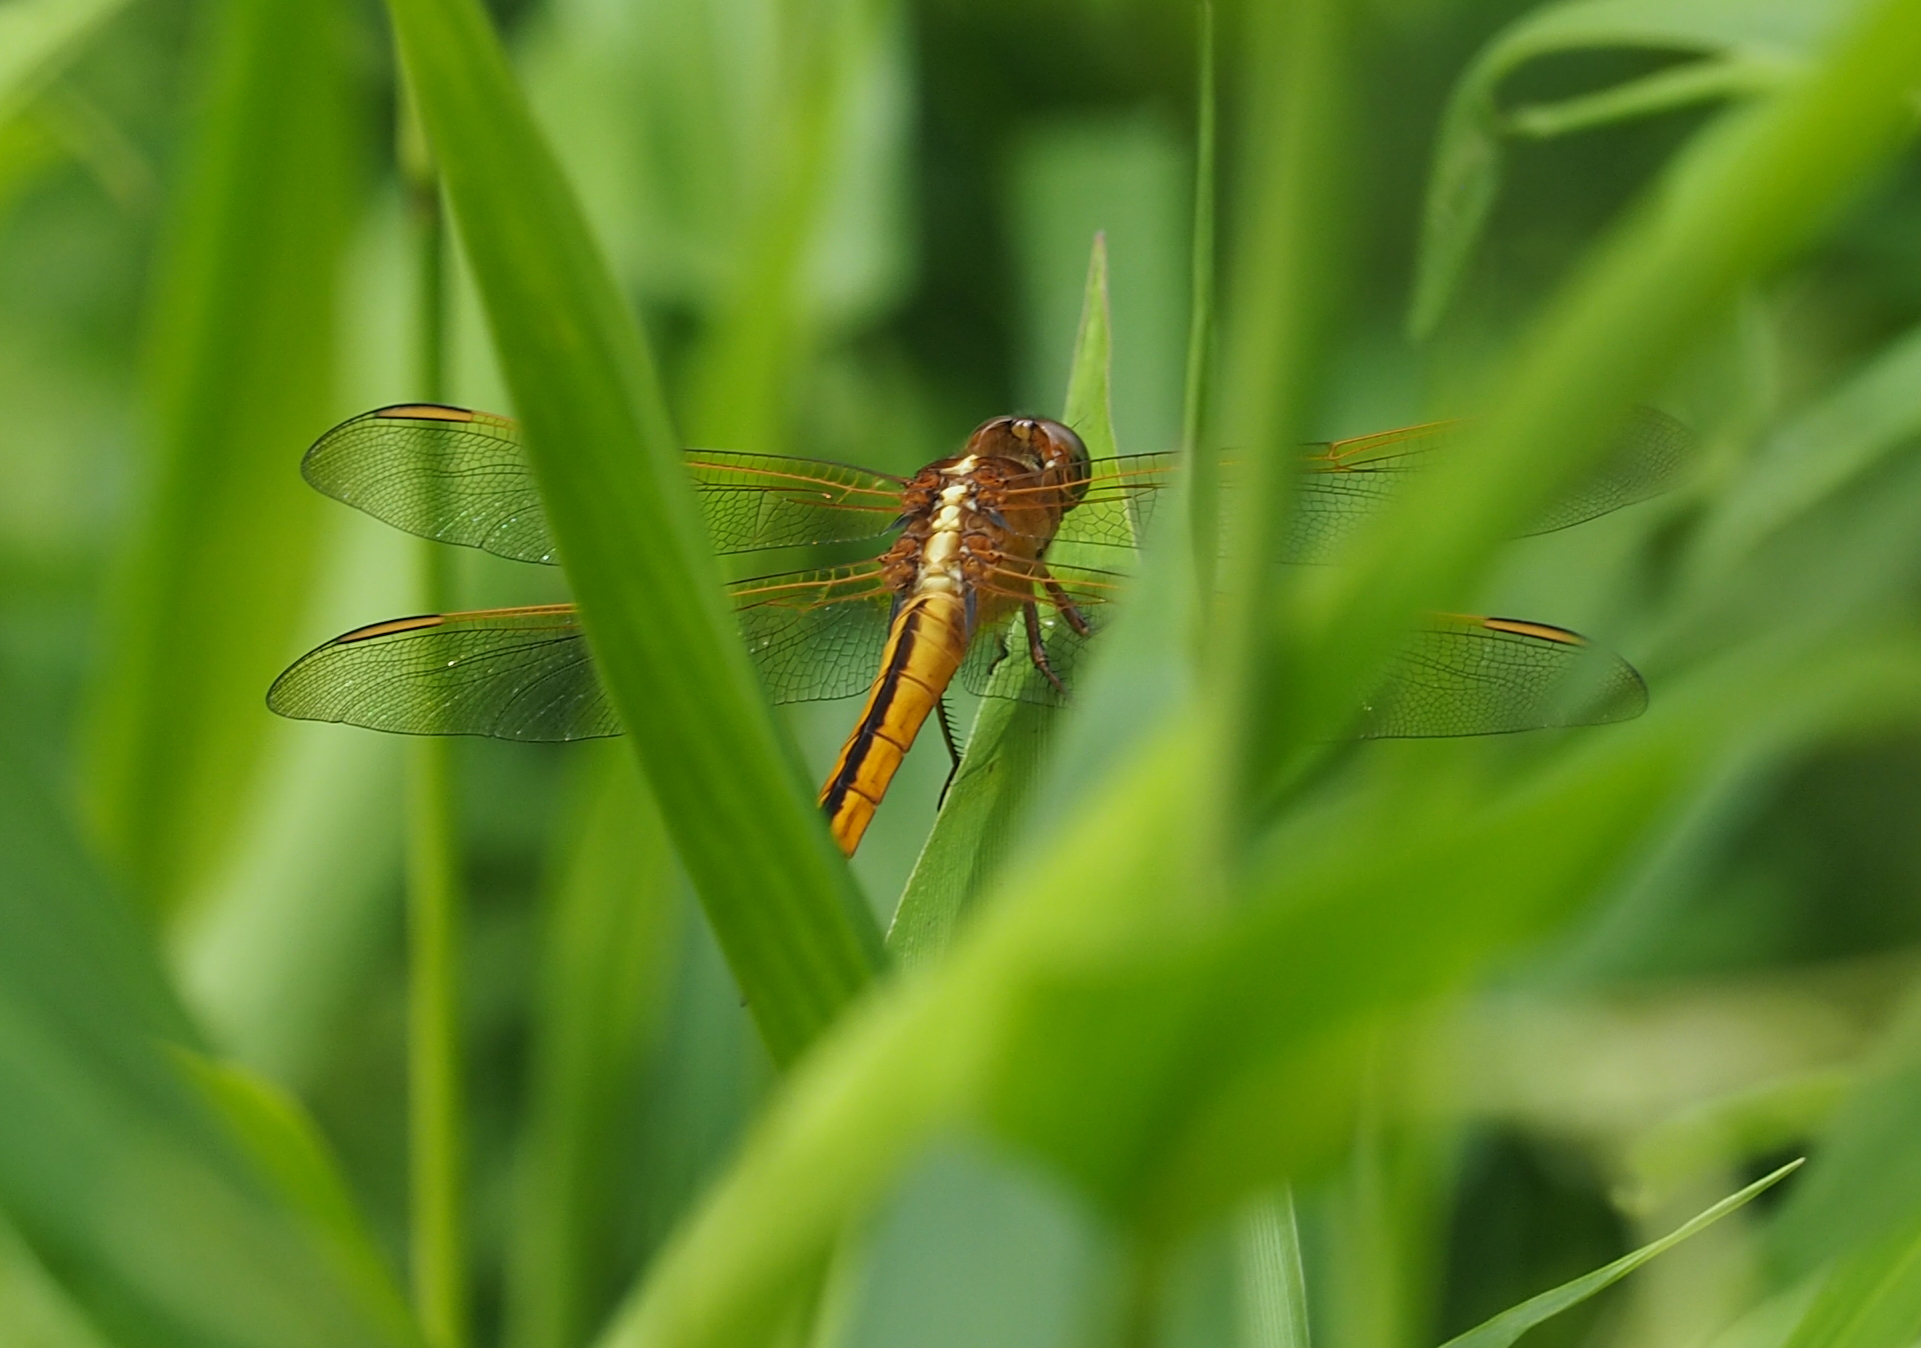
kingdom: Animalia
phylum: Arthropoda
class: Insecta
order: Odonata
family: Libellulidae
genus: Libellula
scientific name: Libellula needhami
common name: Needham's skimmer
